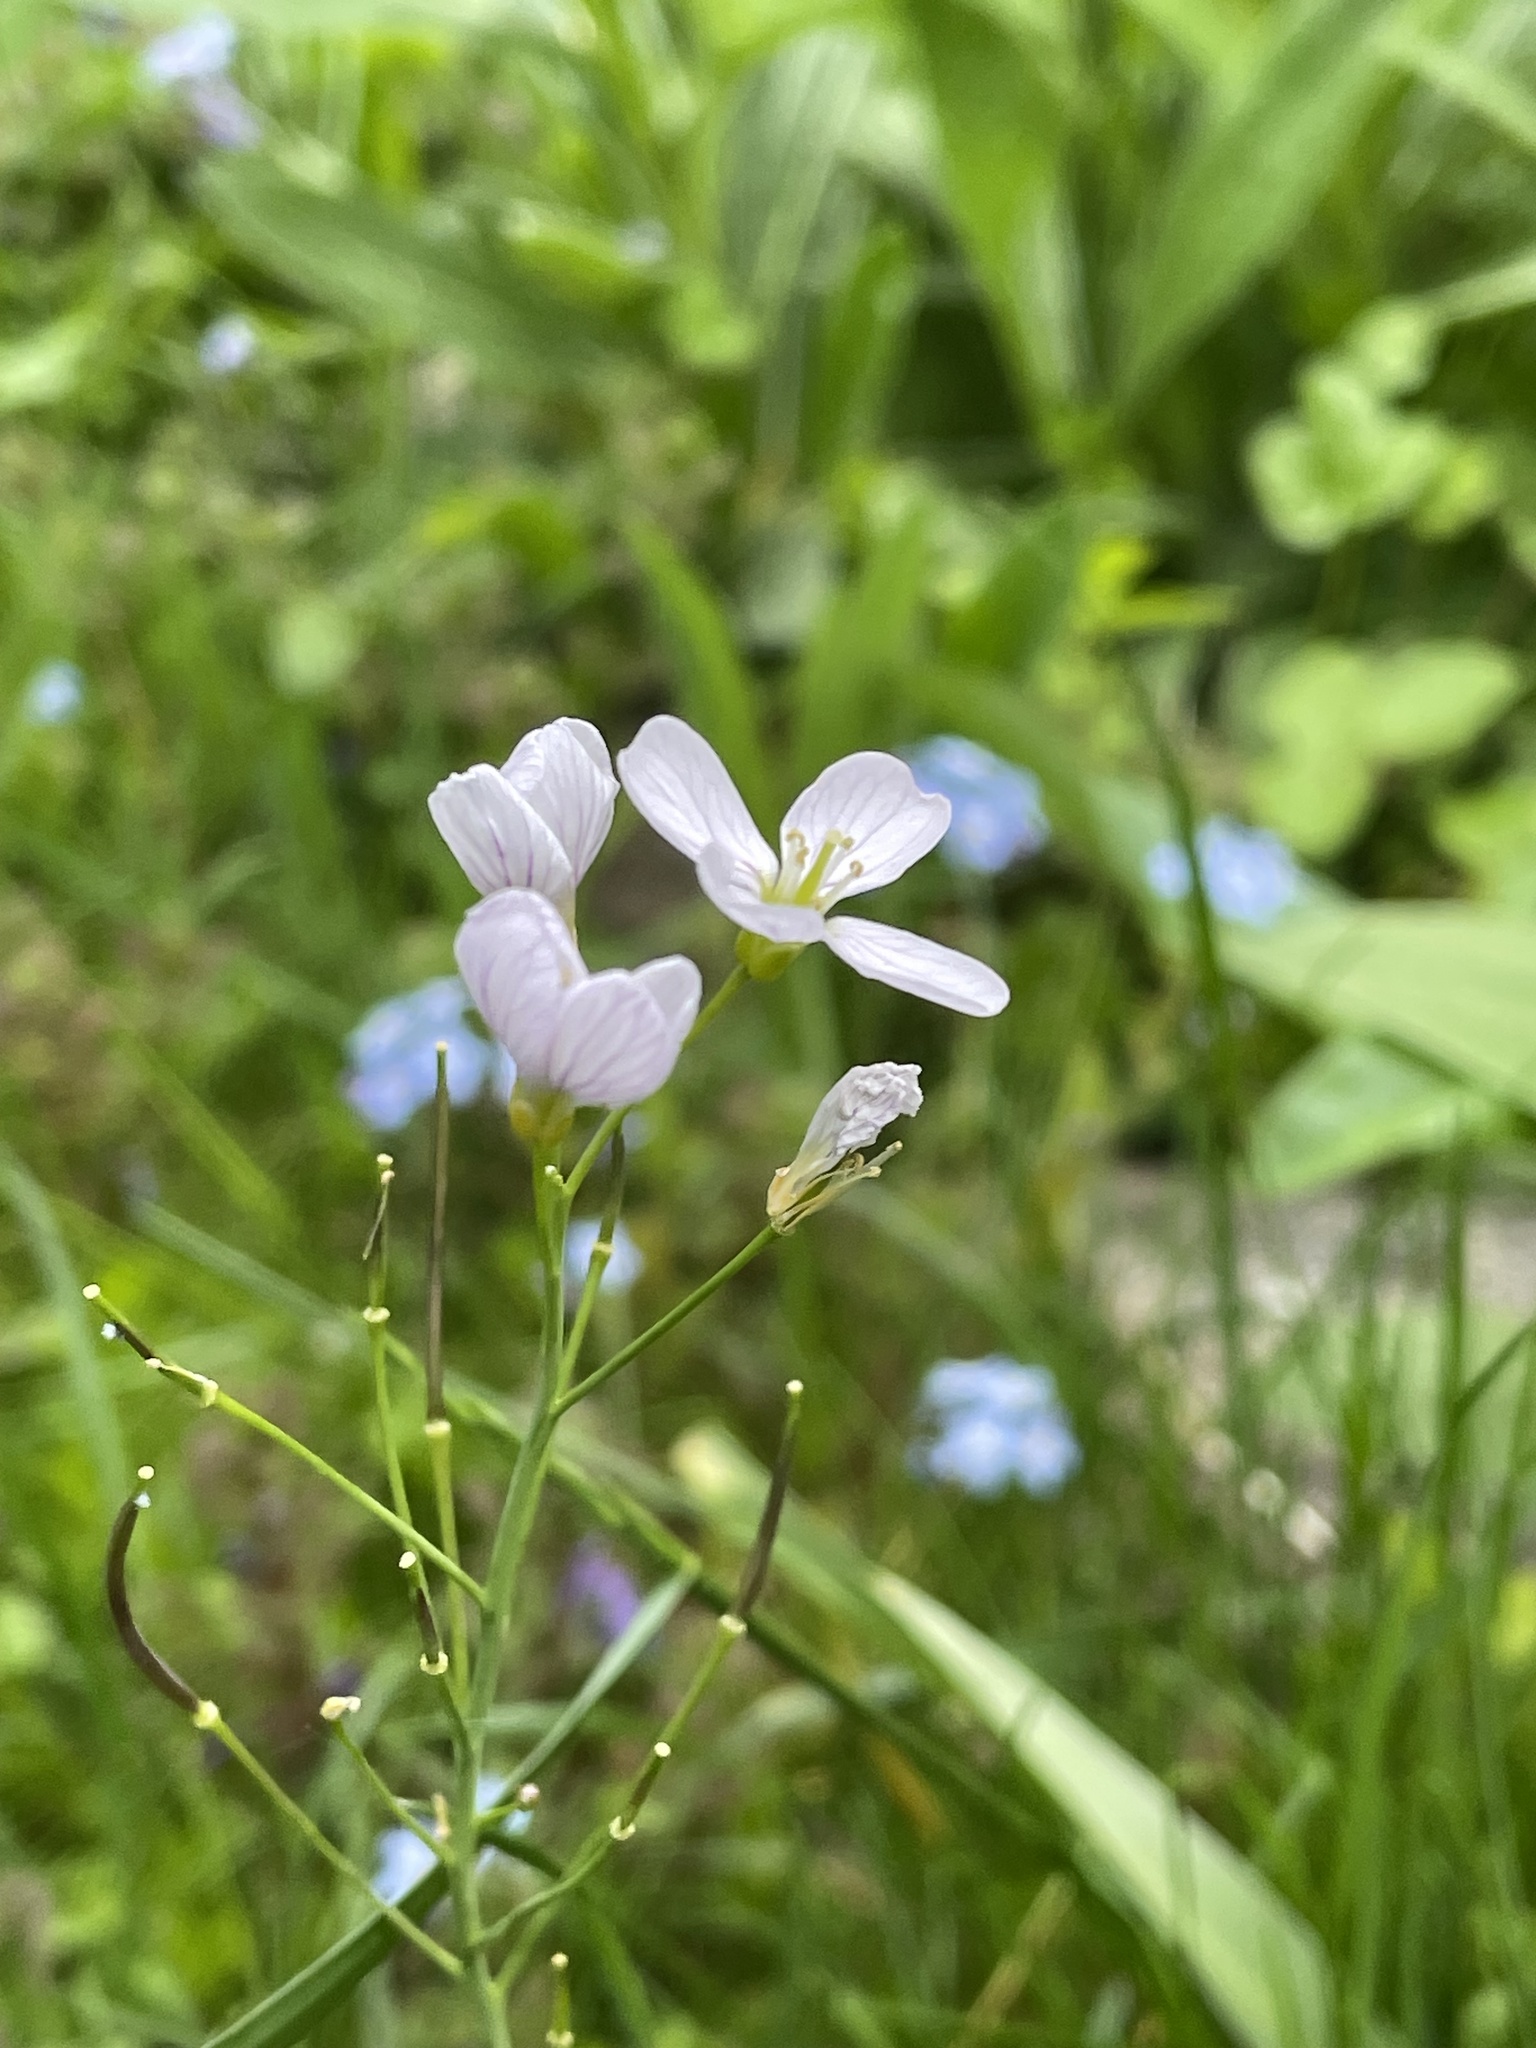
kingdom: Plantae
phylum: Tracheophyta
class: Magnoliopsida
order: Brassicales
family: Brassicaceae
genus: Cardamine
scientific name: Cardamine pratensis
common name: Cuckoo flower
